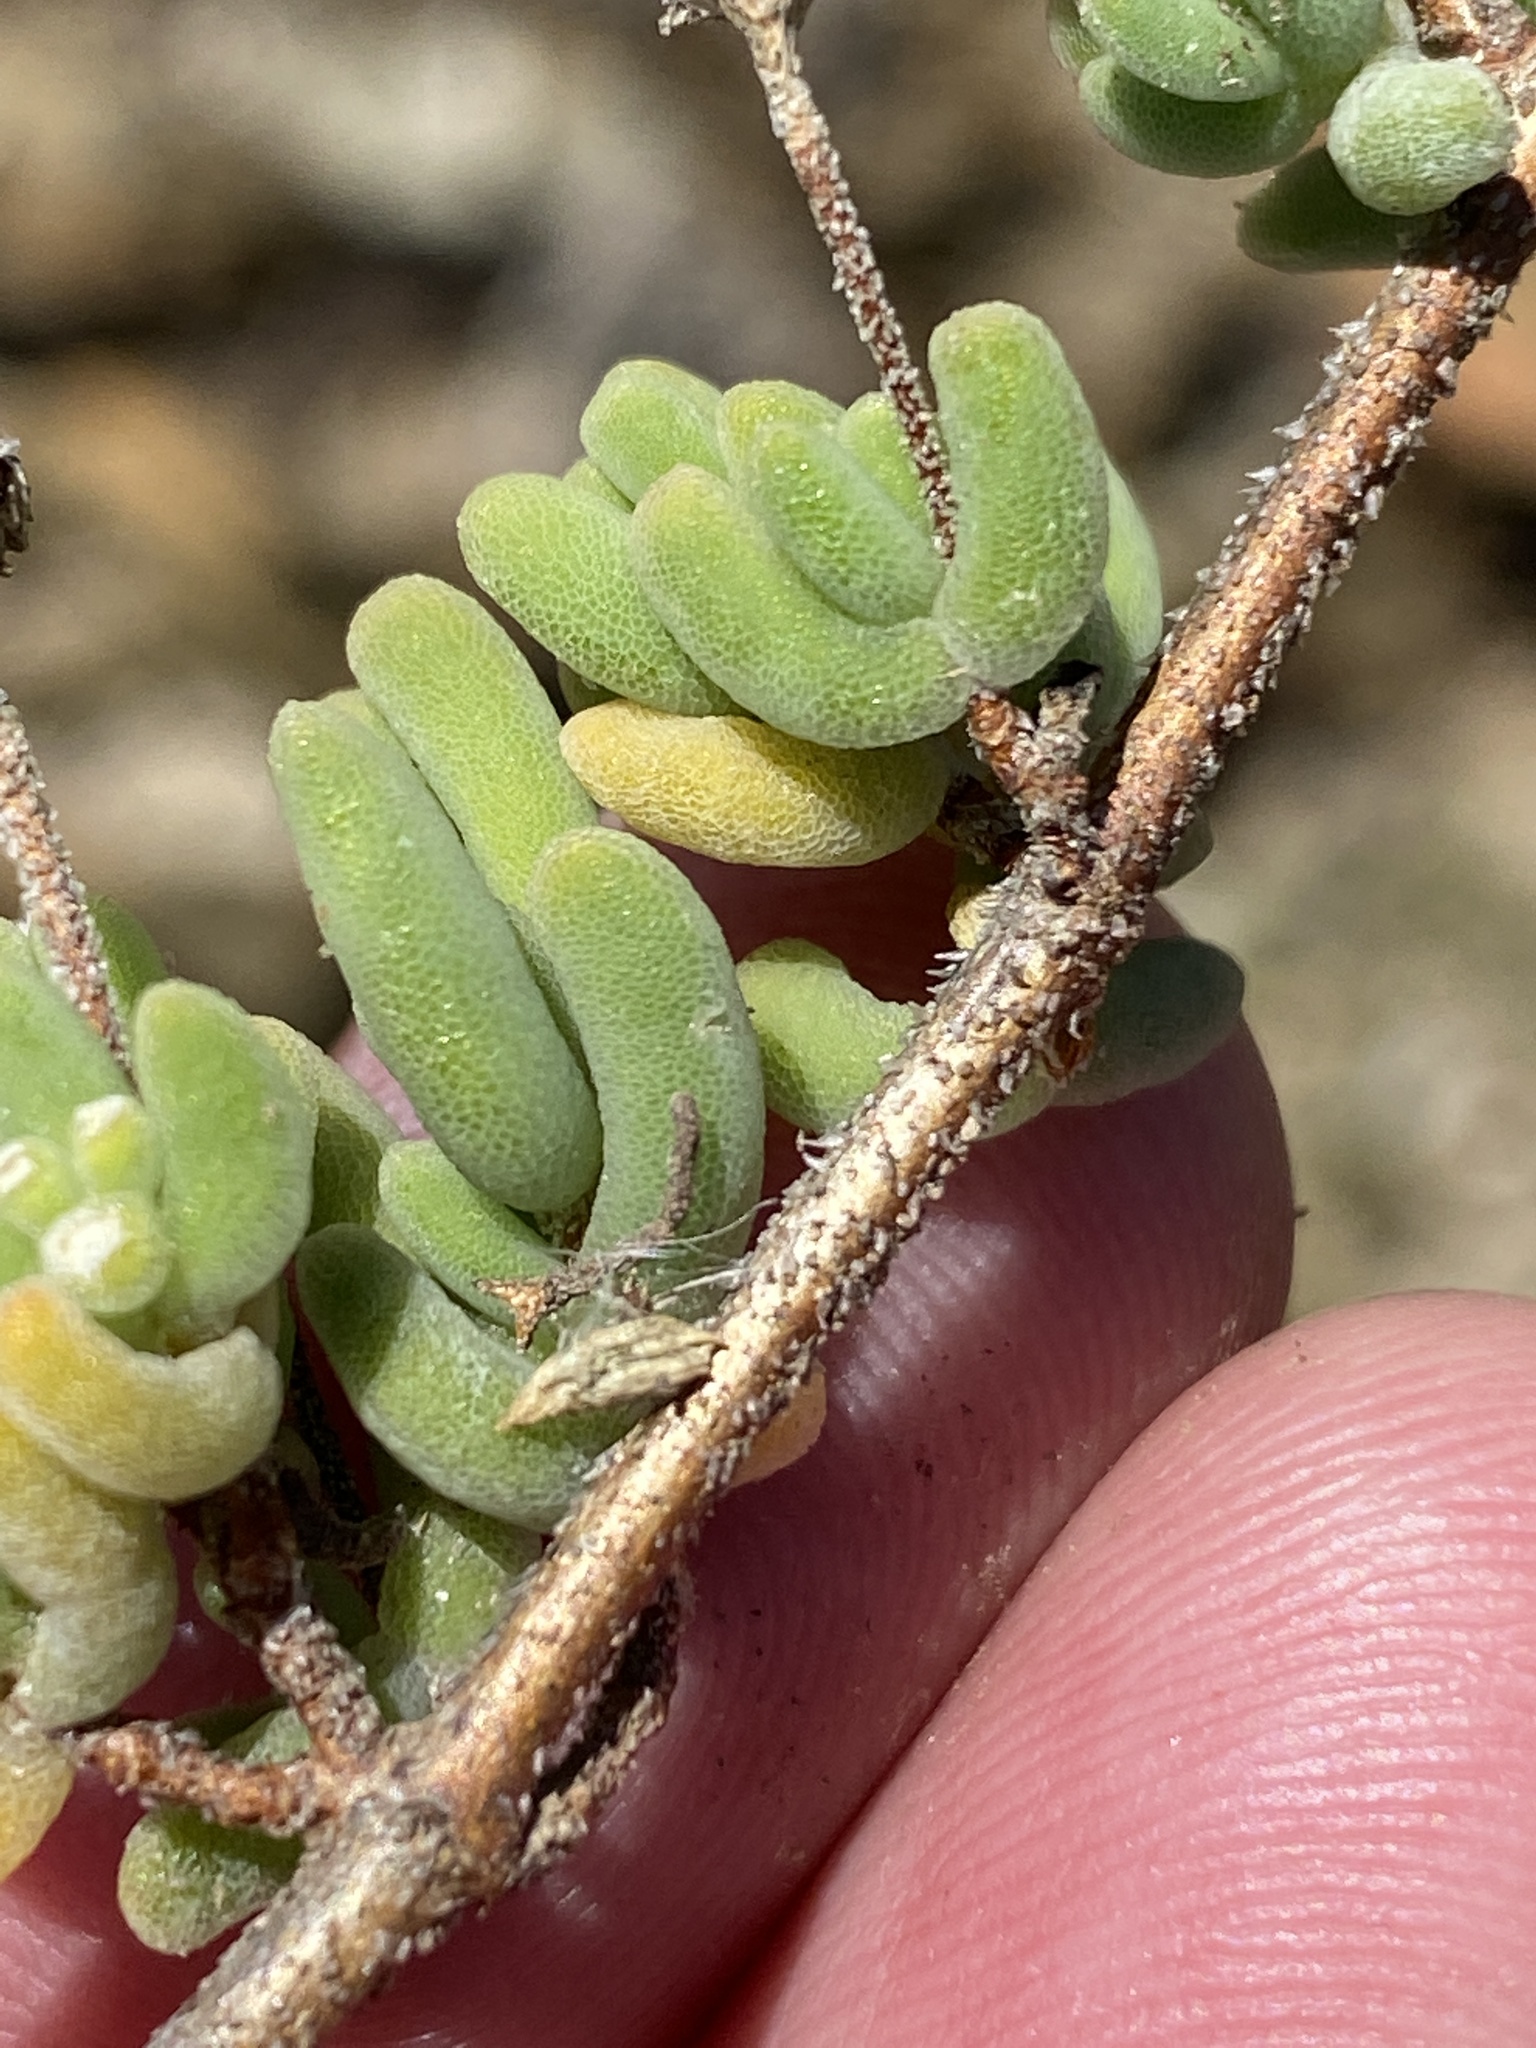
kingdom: Plantae
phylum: Tracheophyta
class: Magnoliopsida
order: Caryophyllales
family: Aizoaceae
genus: Drosanthemum
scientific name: Drosanthemum tuberculiferum
